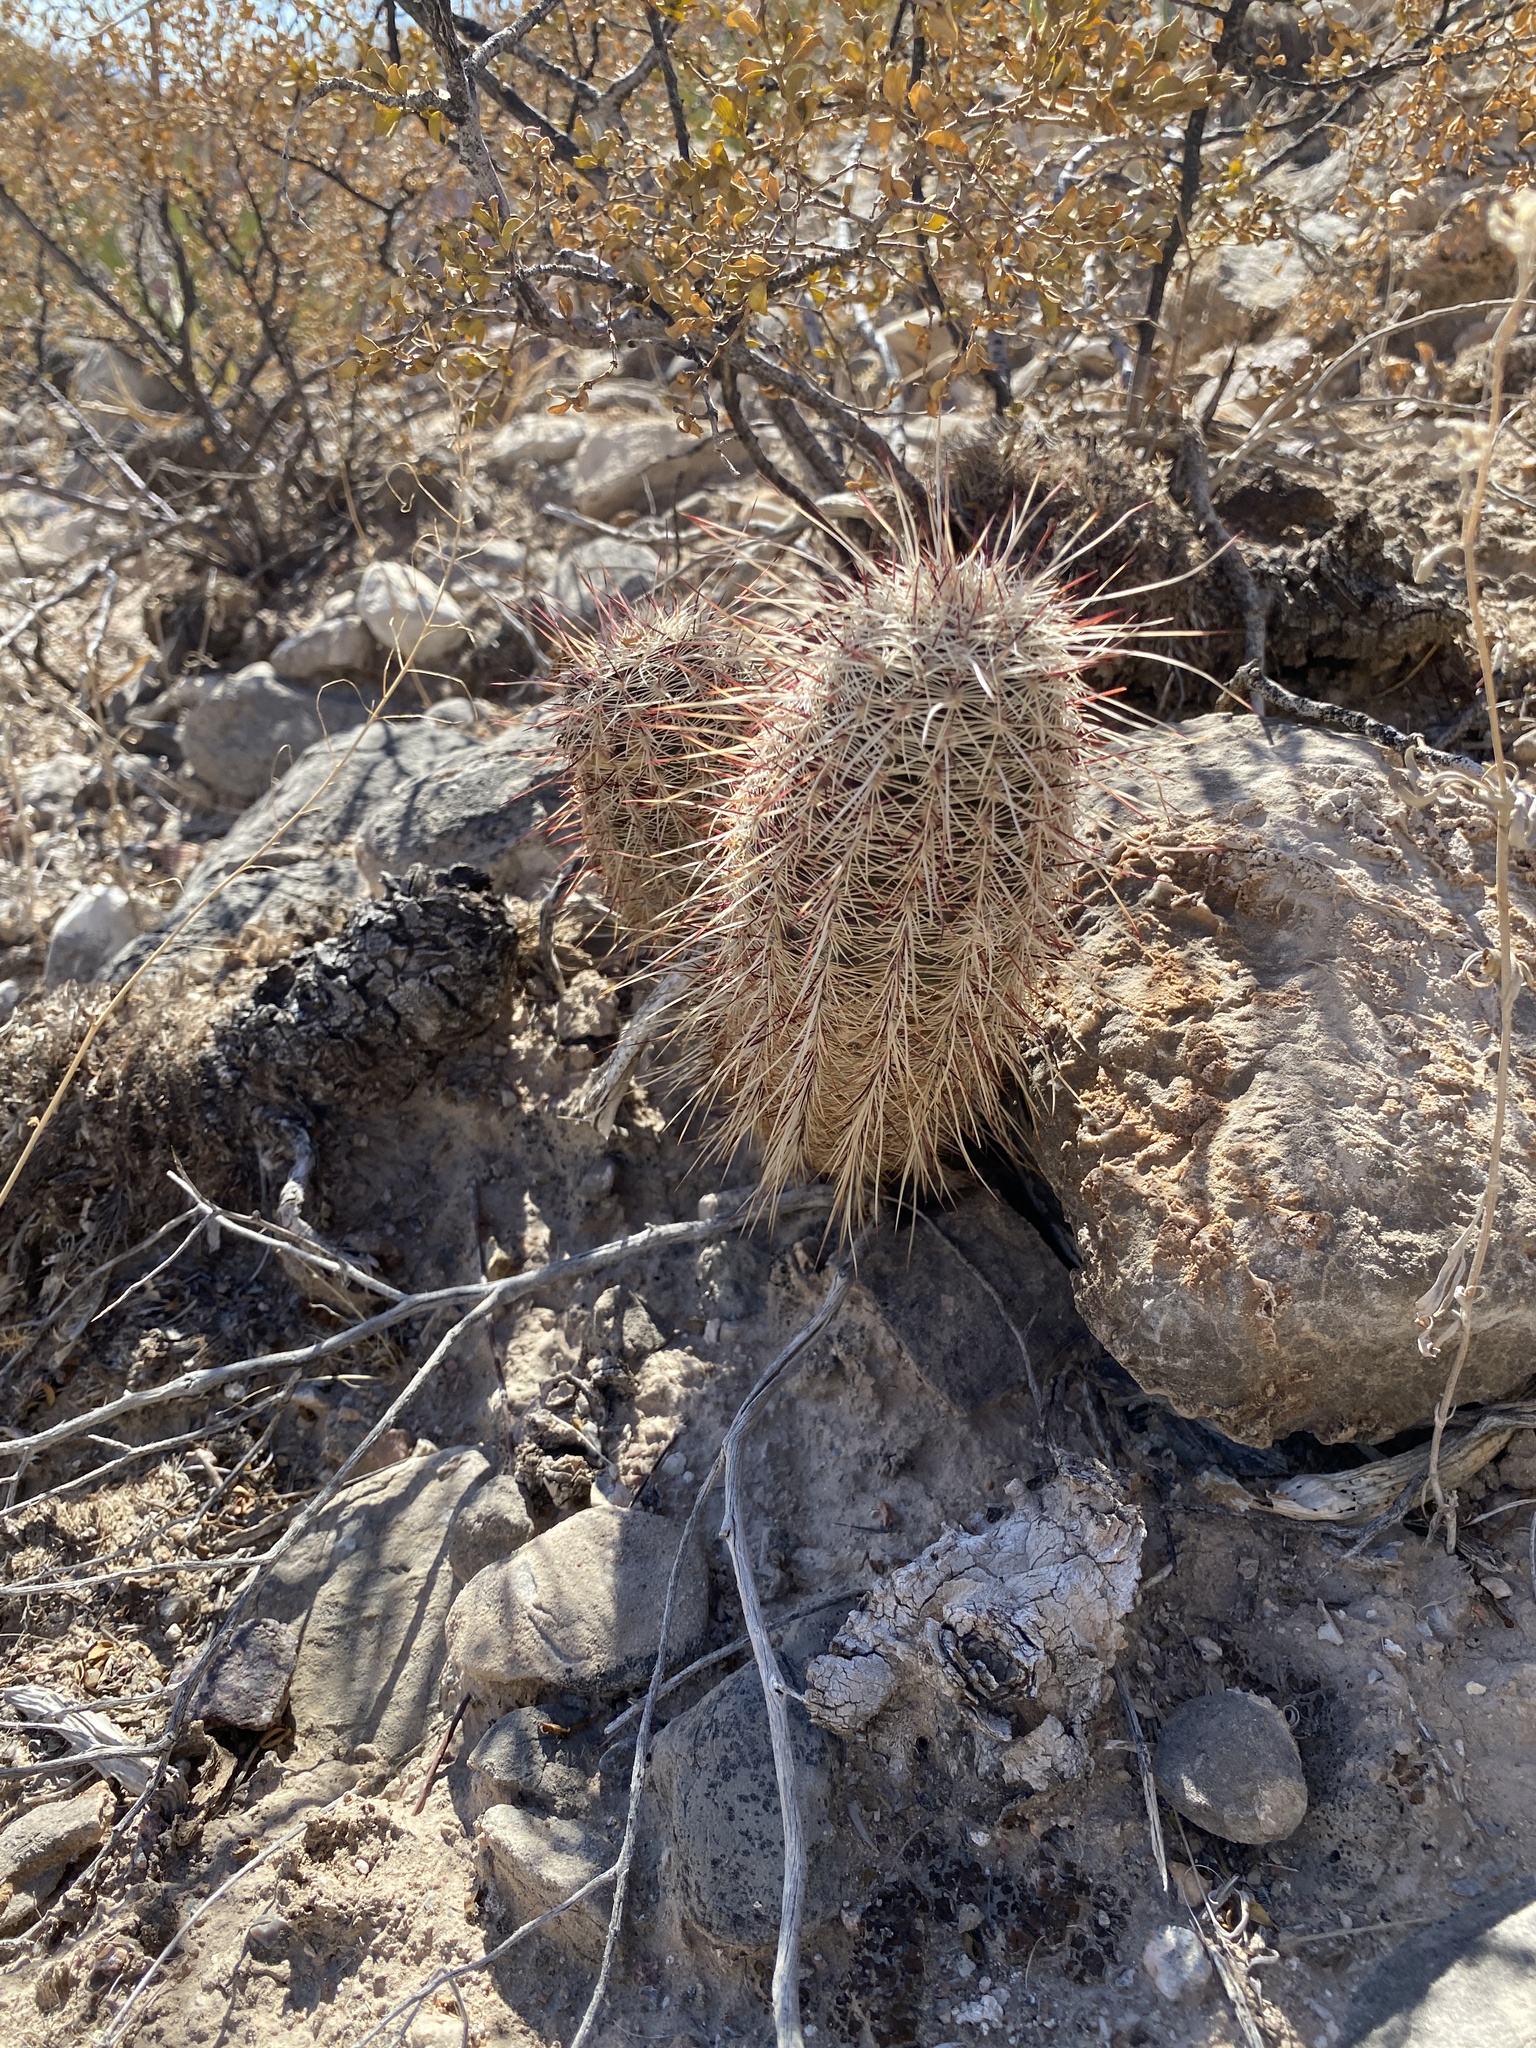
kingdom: Plantae
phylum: Tracheophyta
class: Magnoliopsida
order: Caryophyllales
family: Cactaceae
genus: Echinocereus
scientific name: Echinocereus viridiflorus
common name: Nylon hedgehog cactus
